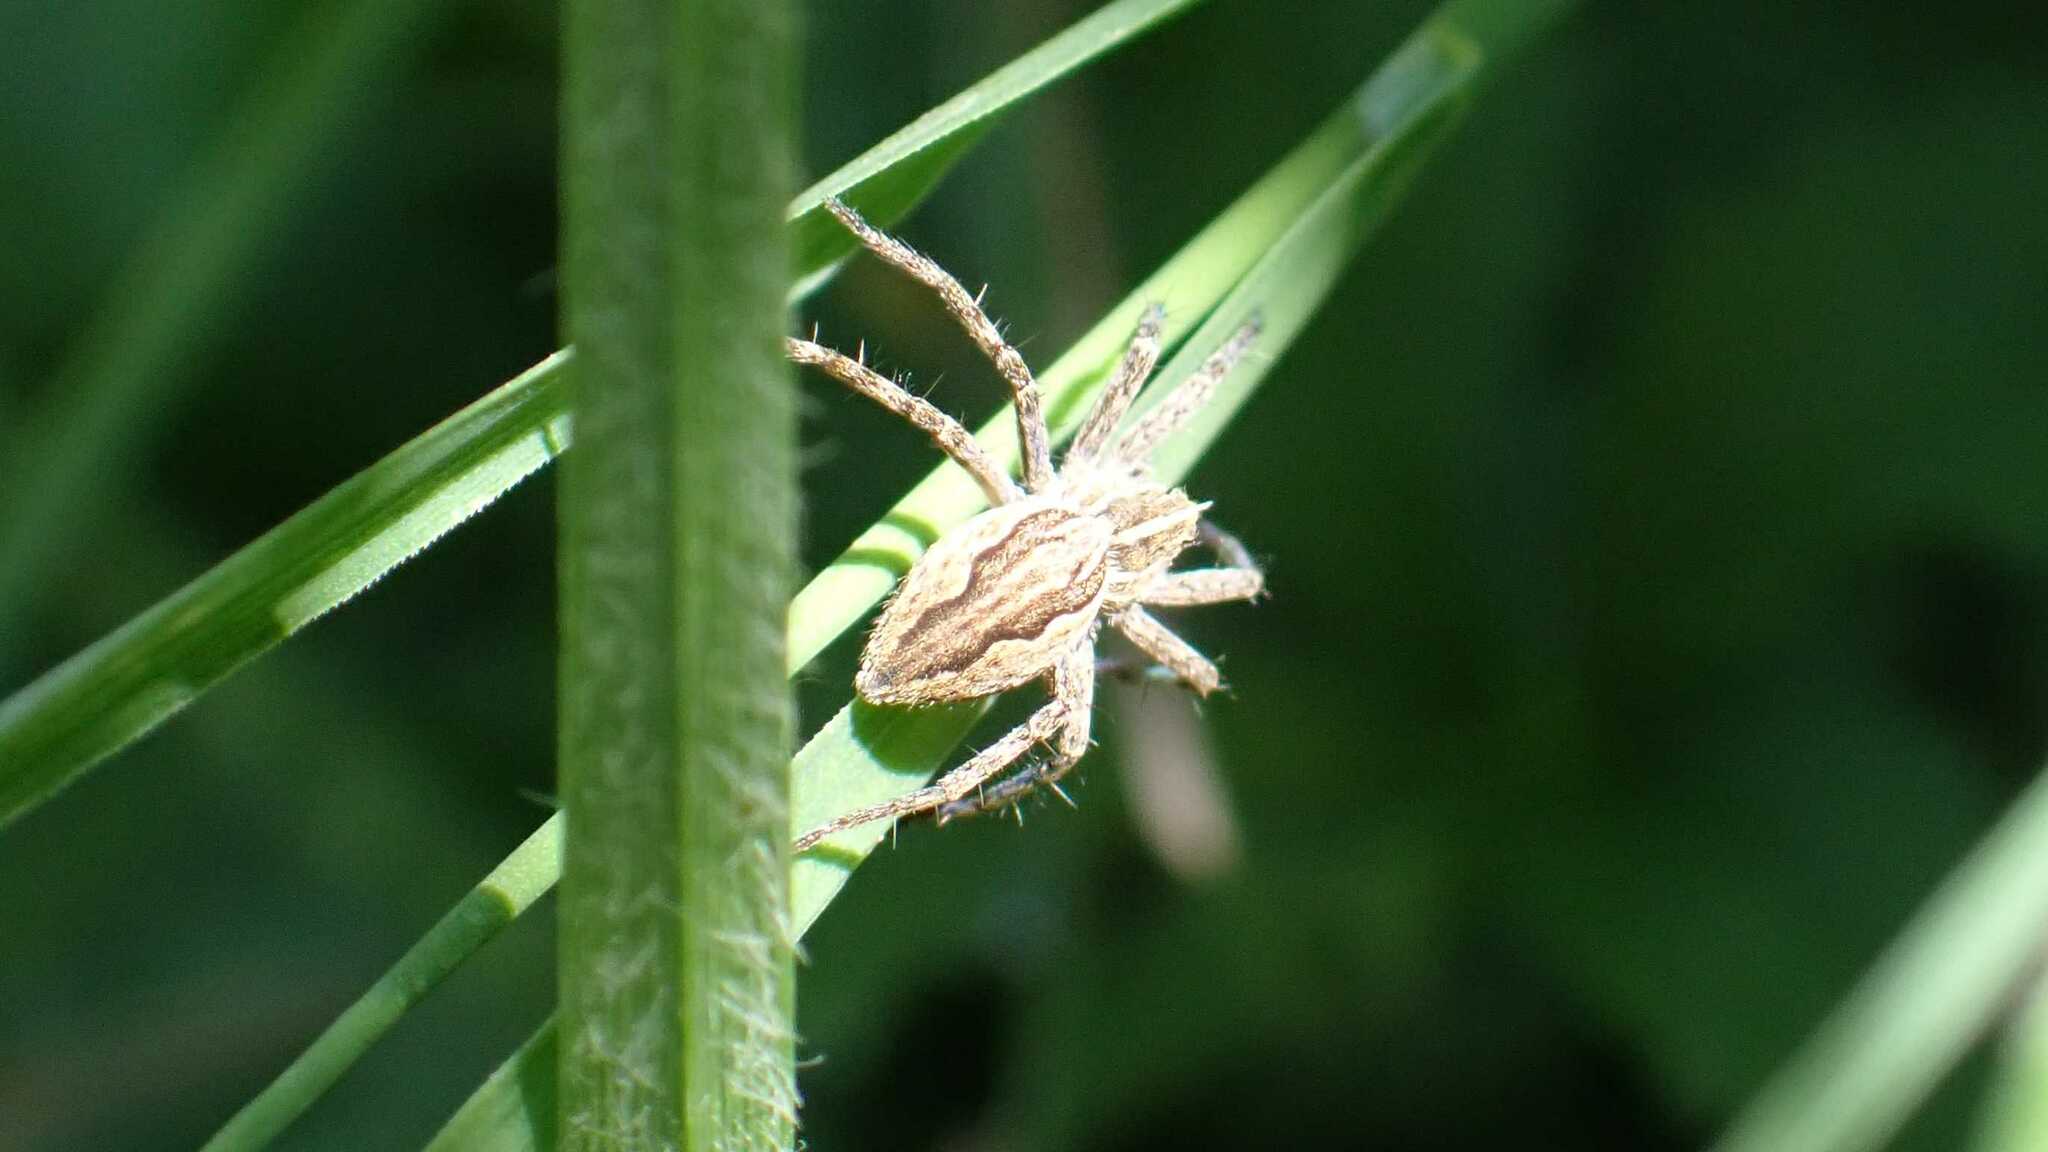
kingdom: Animalia
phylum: Arthropoda
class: Arachnida
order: Araneae
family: Pisauridae
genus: Pisaura
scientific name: Pisaura mirabilis
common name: Tent spider
